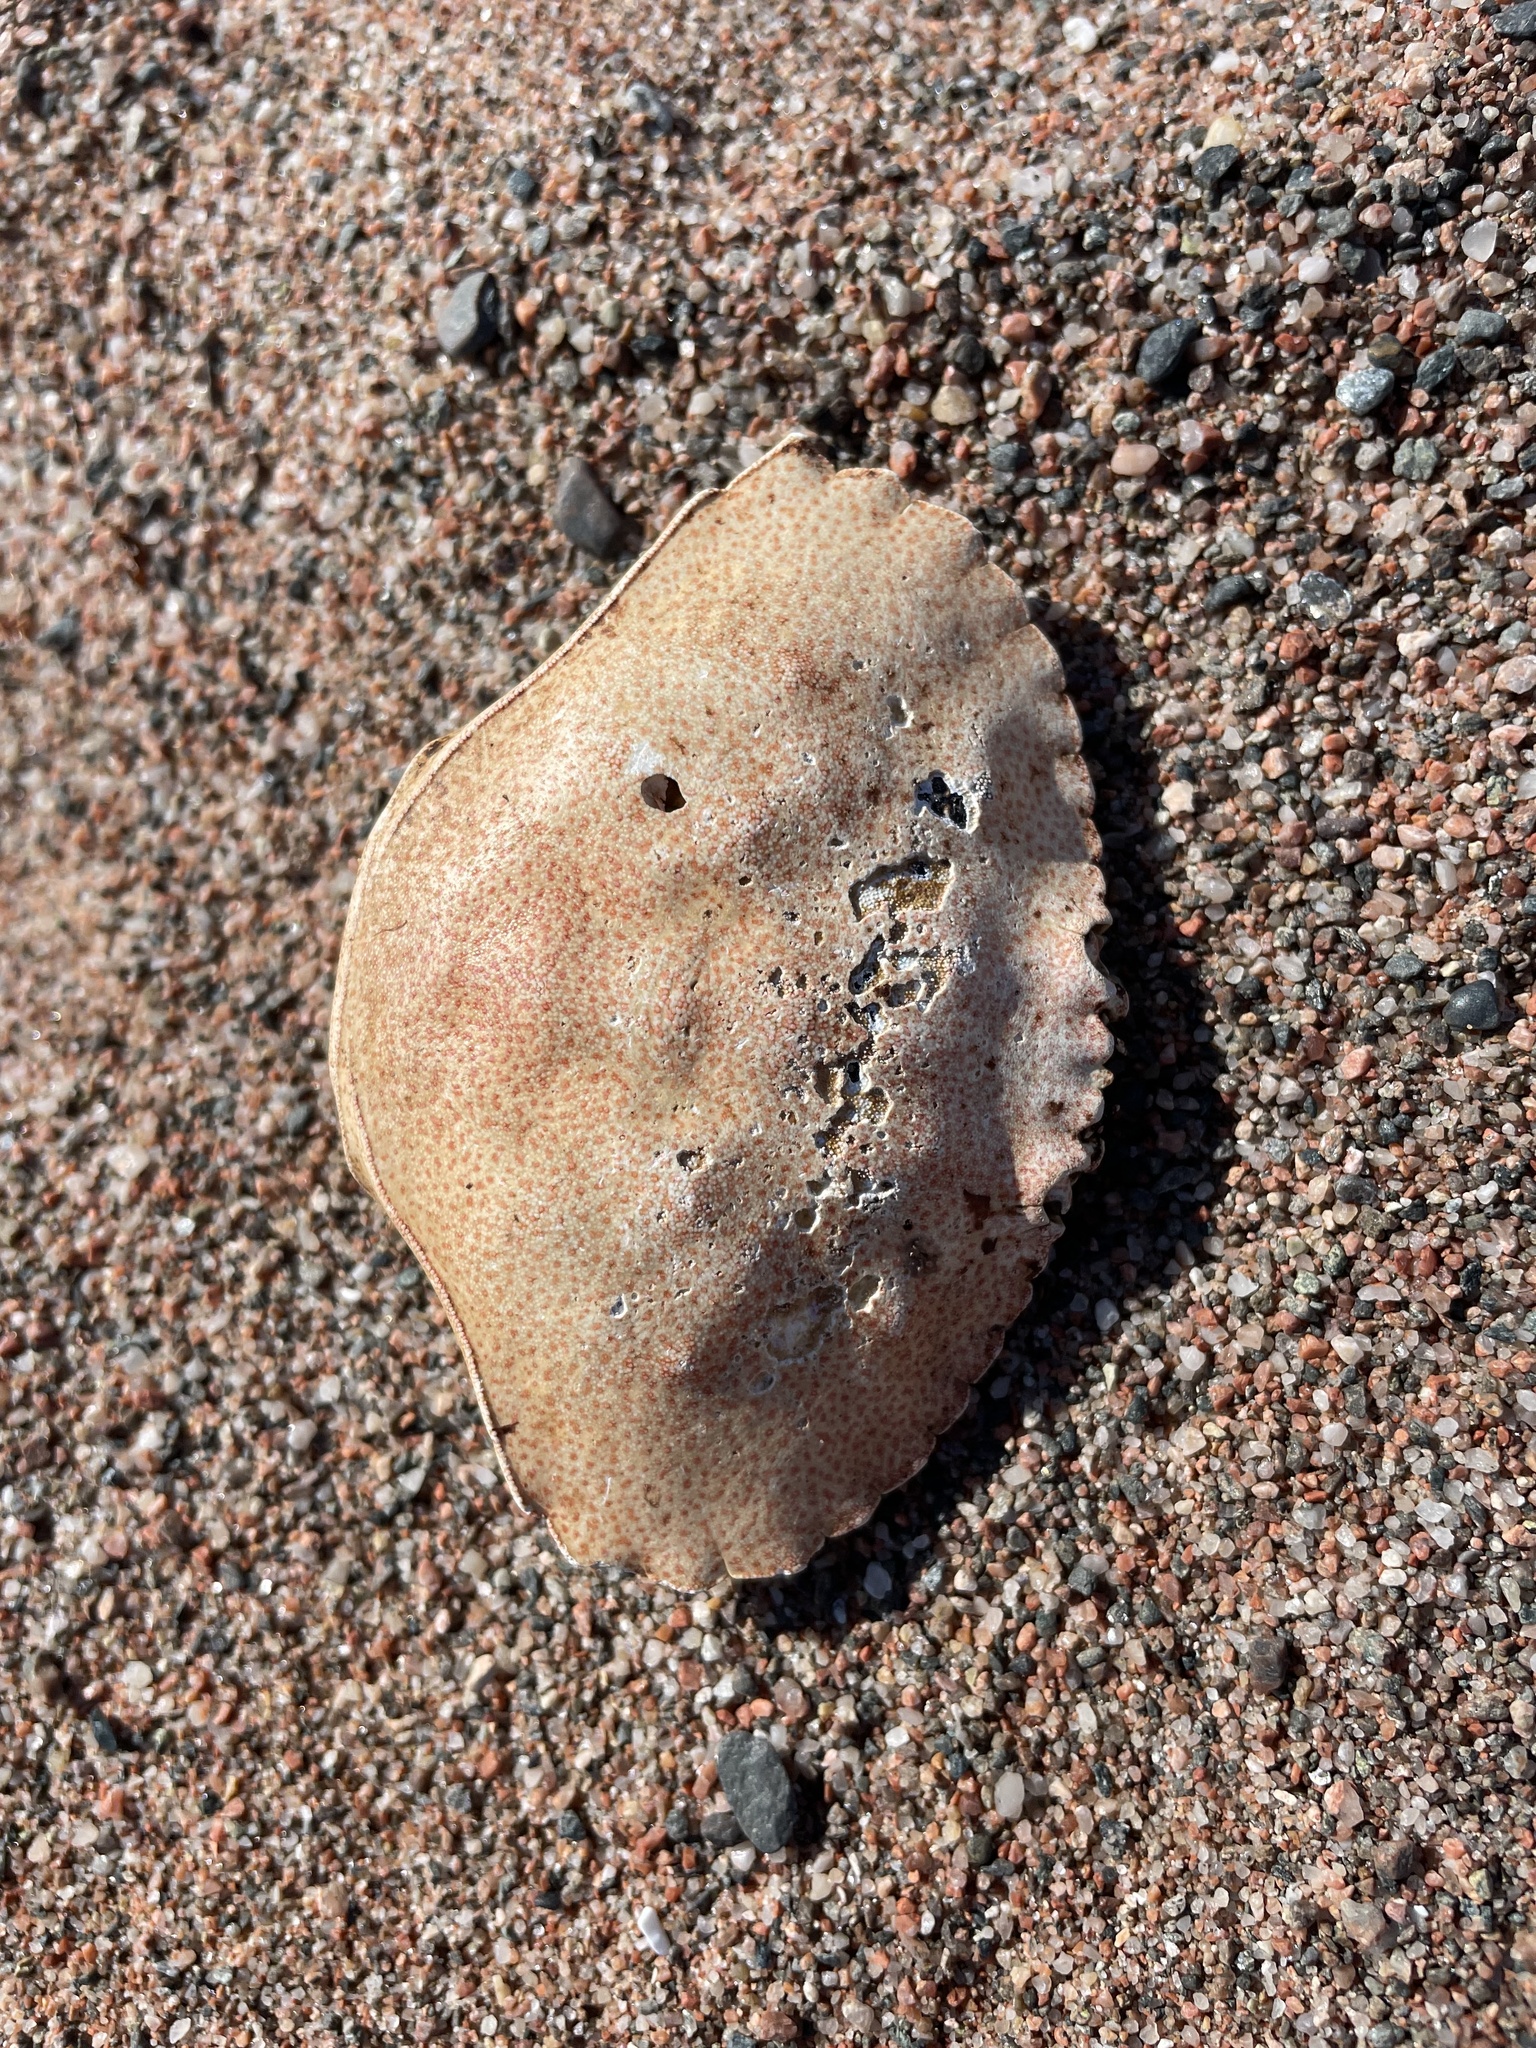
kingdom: Animalia
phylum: Arthropoda
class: Malacostraca
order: Decapoda
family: Cancridae
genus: Cancer
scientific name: Cancer irroratus
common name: Atlantic rock crab
